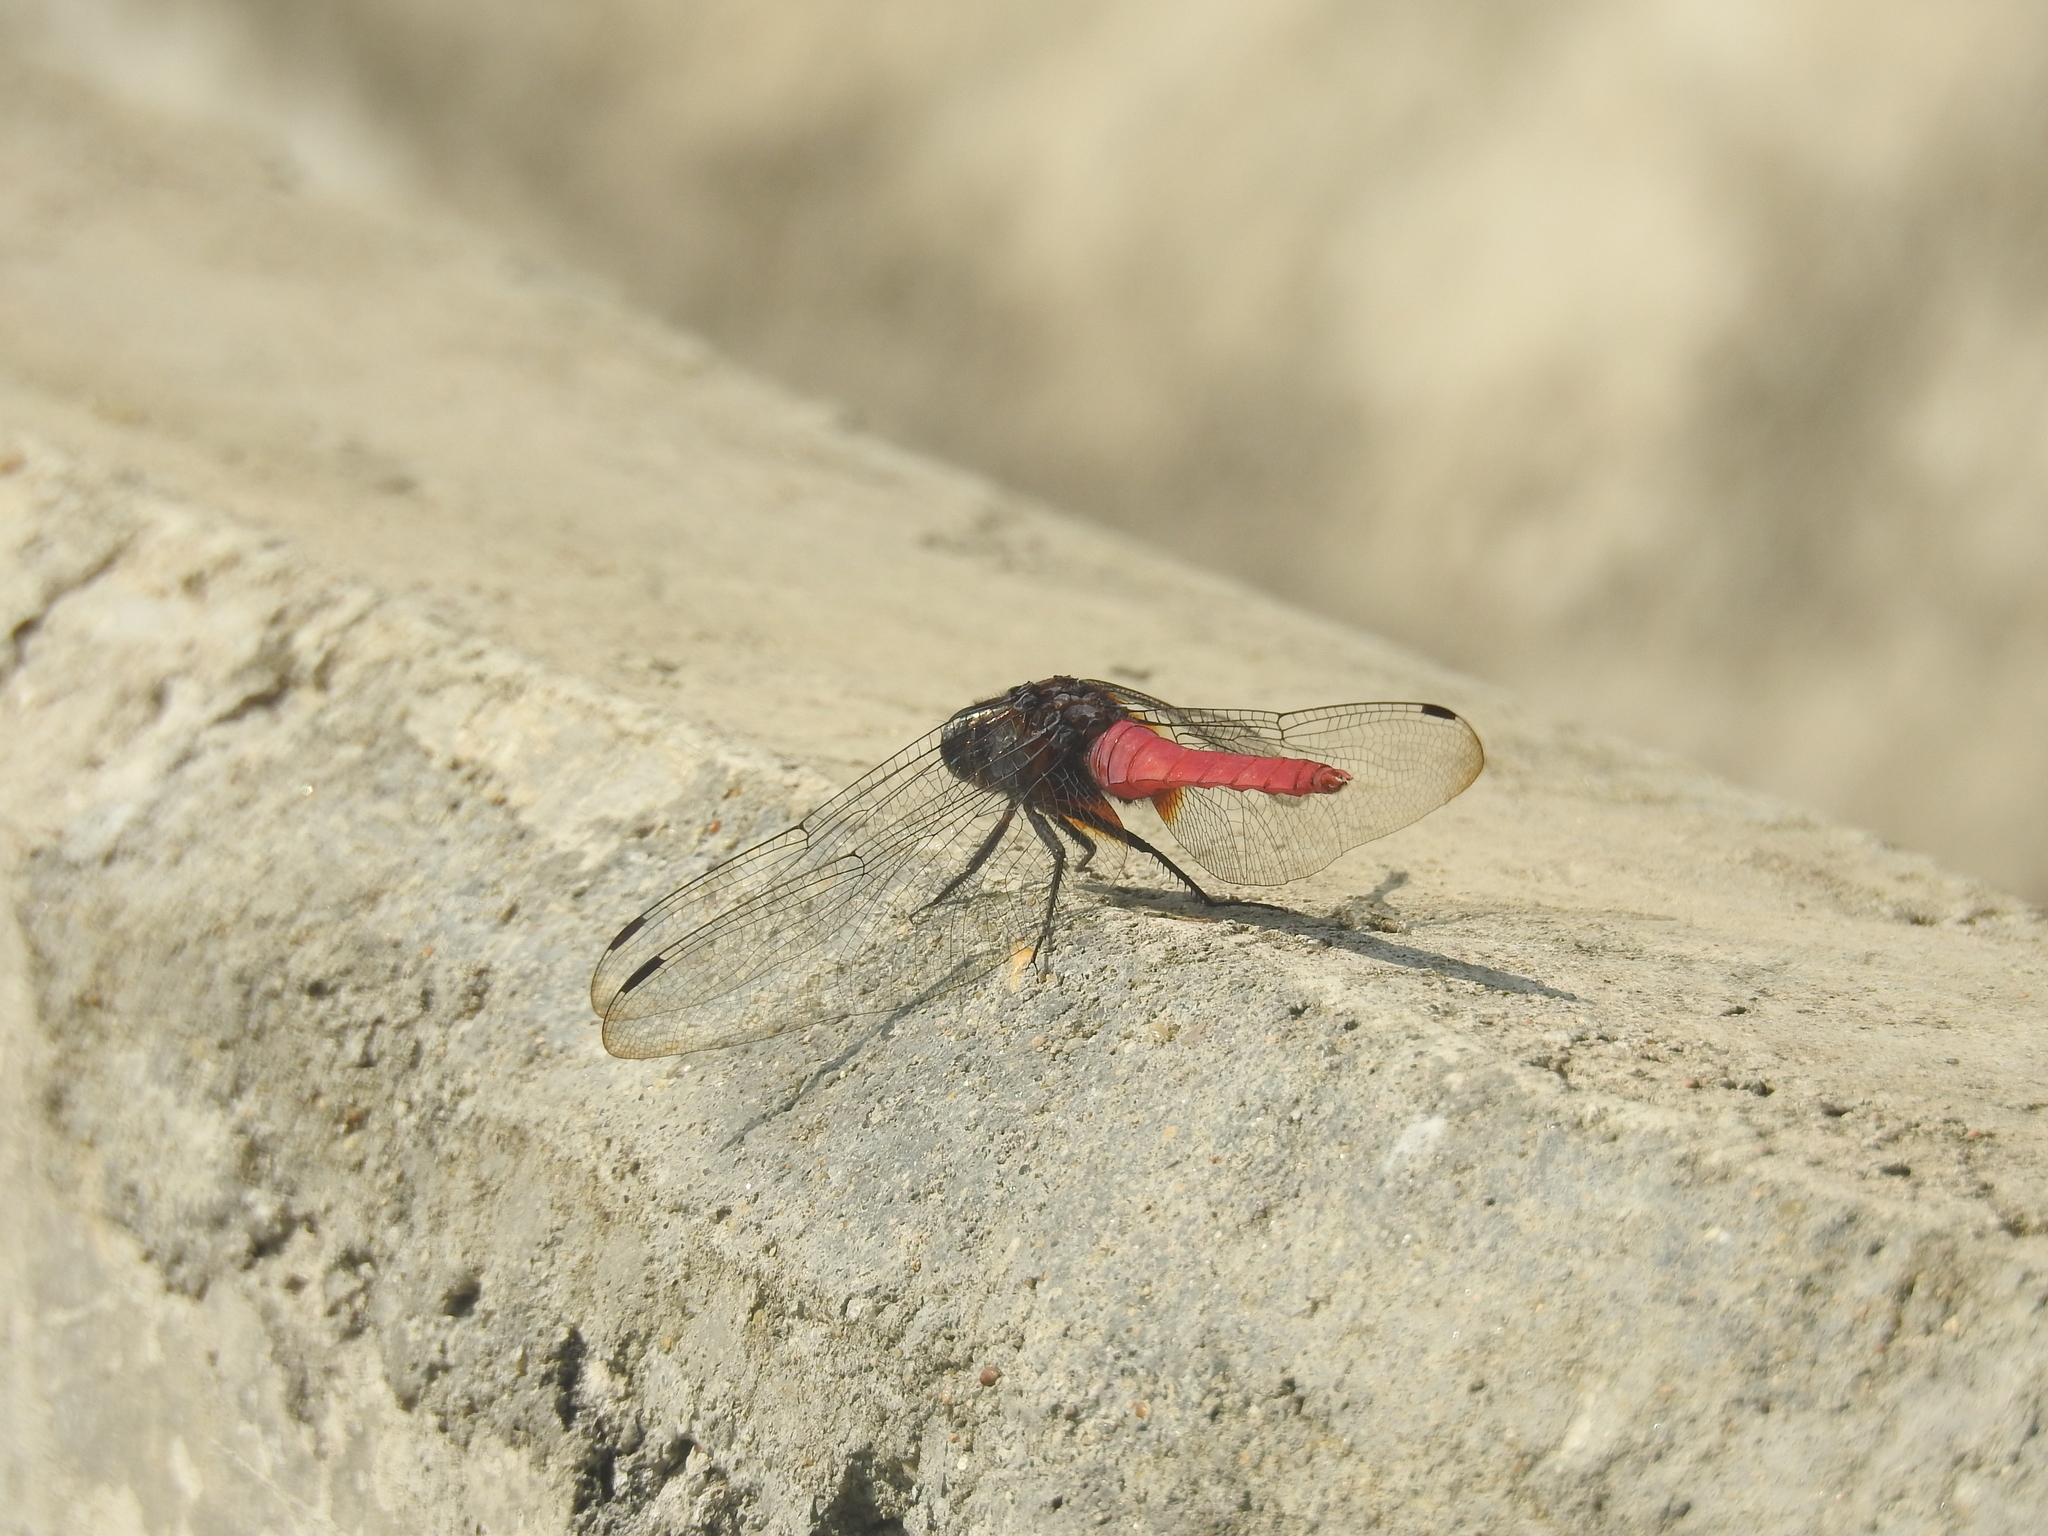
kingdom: Animalia
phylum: Arthropoda
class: Insecta
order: Odonata
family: Libellulidae
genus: Orthetrum
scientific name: Orthetrum pruinosum
